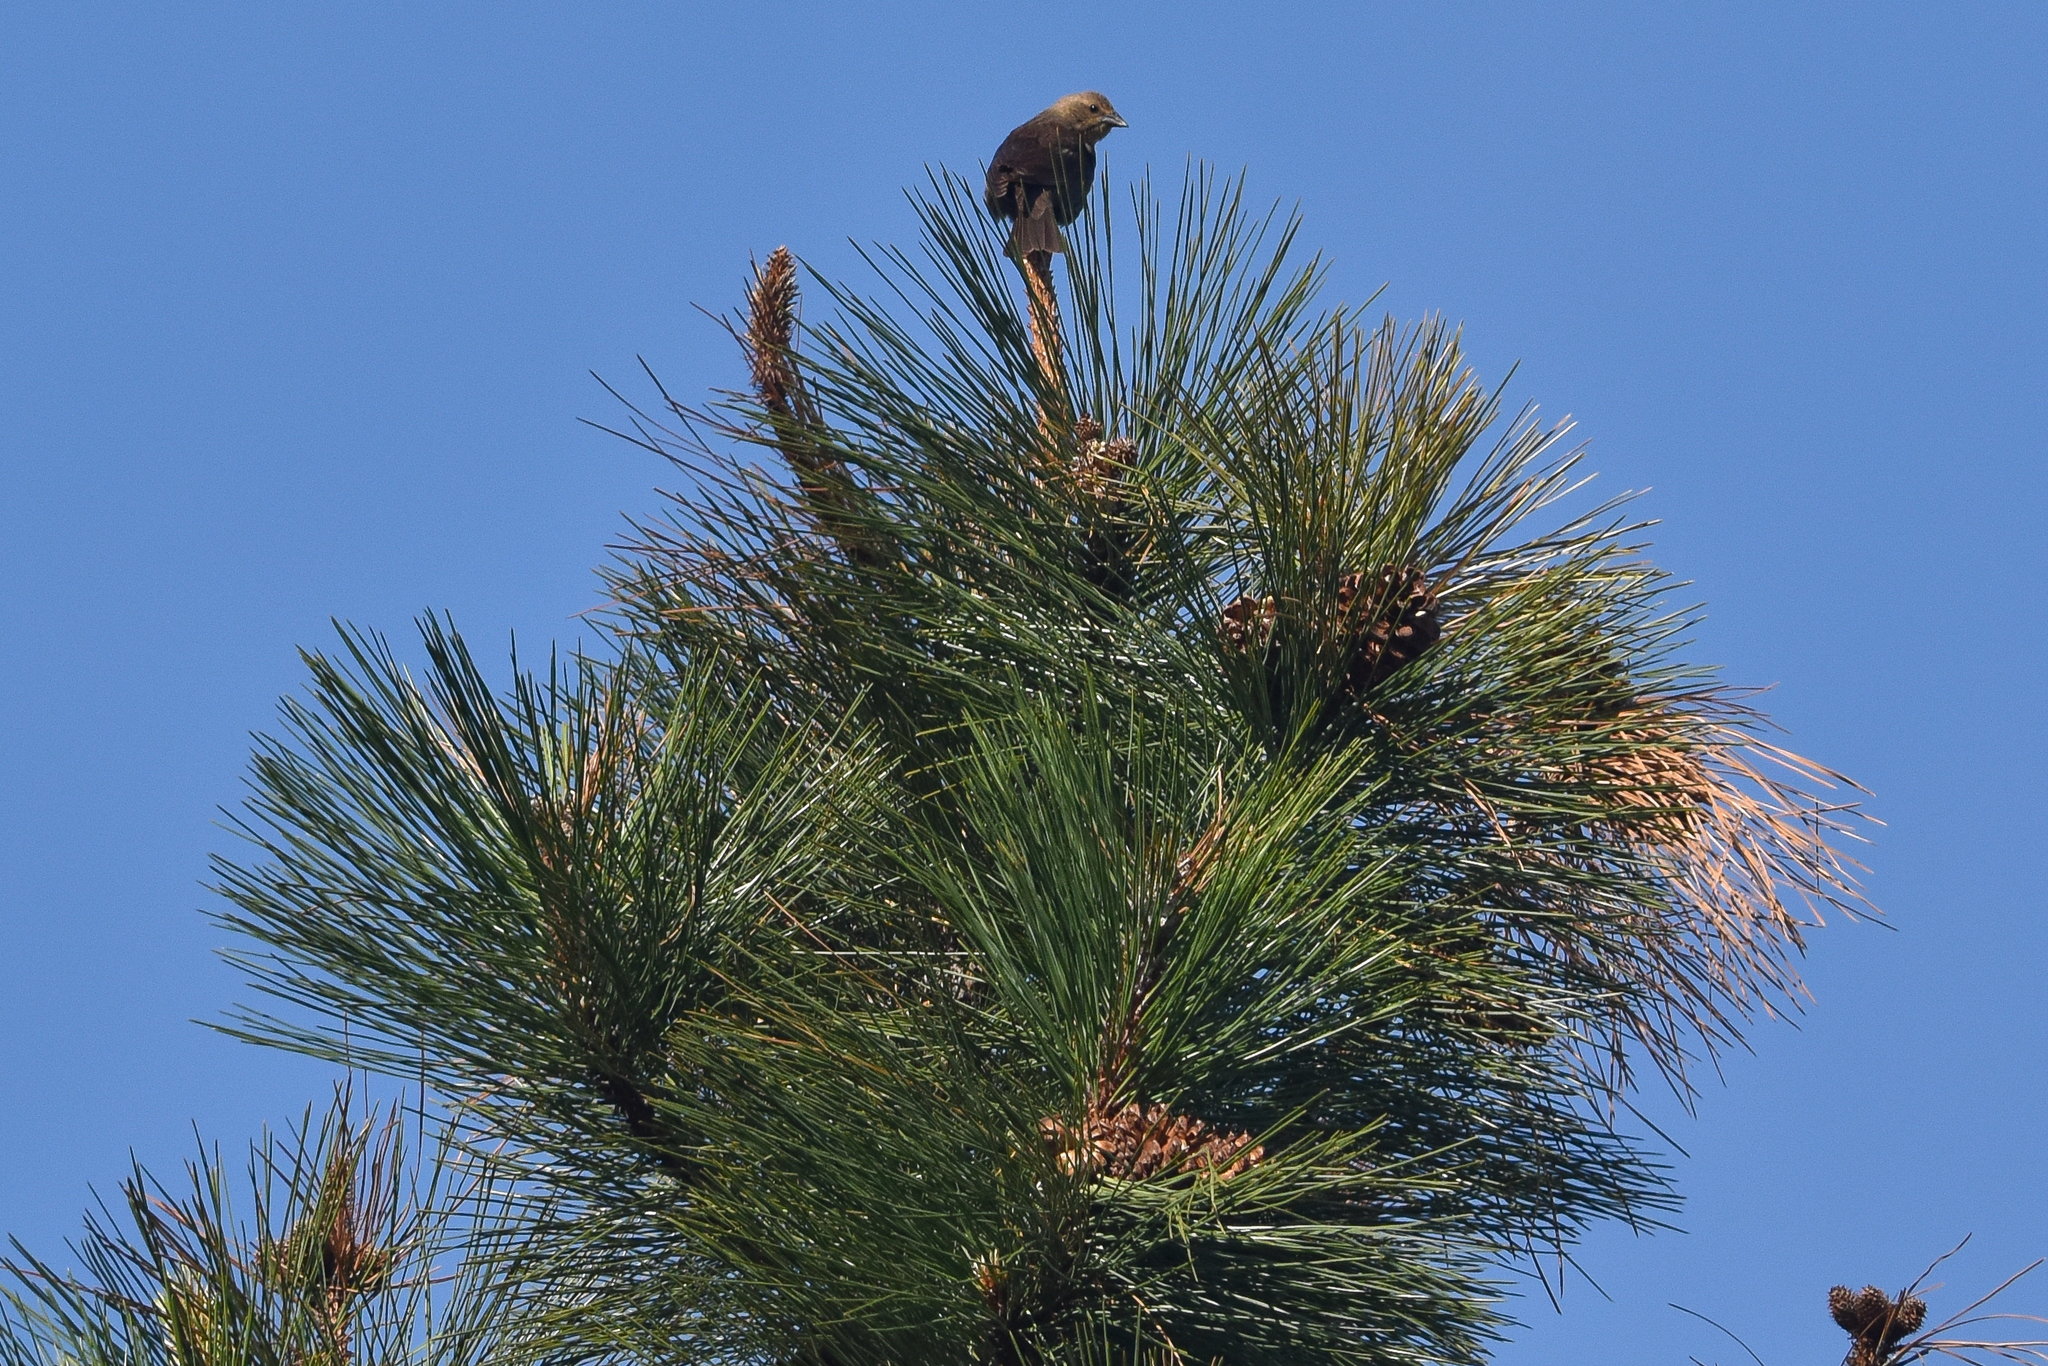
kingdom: Animalia
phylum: Chordata
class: Aves
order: Passeriformes
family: Icteridae
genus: Molothrus
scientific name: Molothrus ater
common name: Brown-headed cowbird
